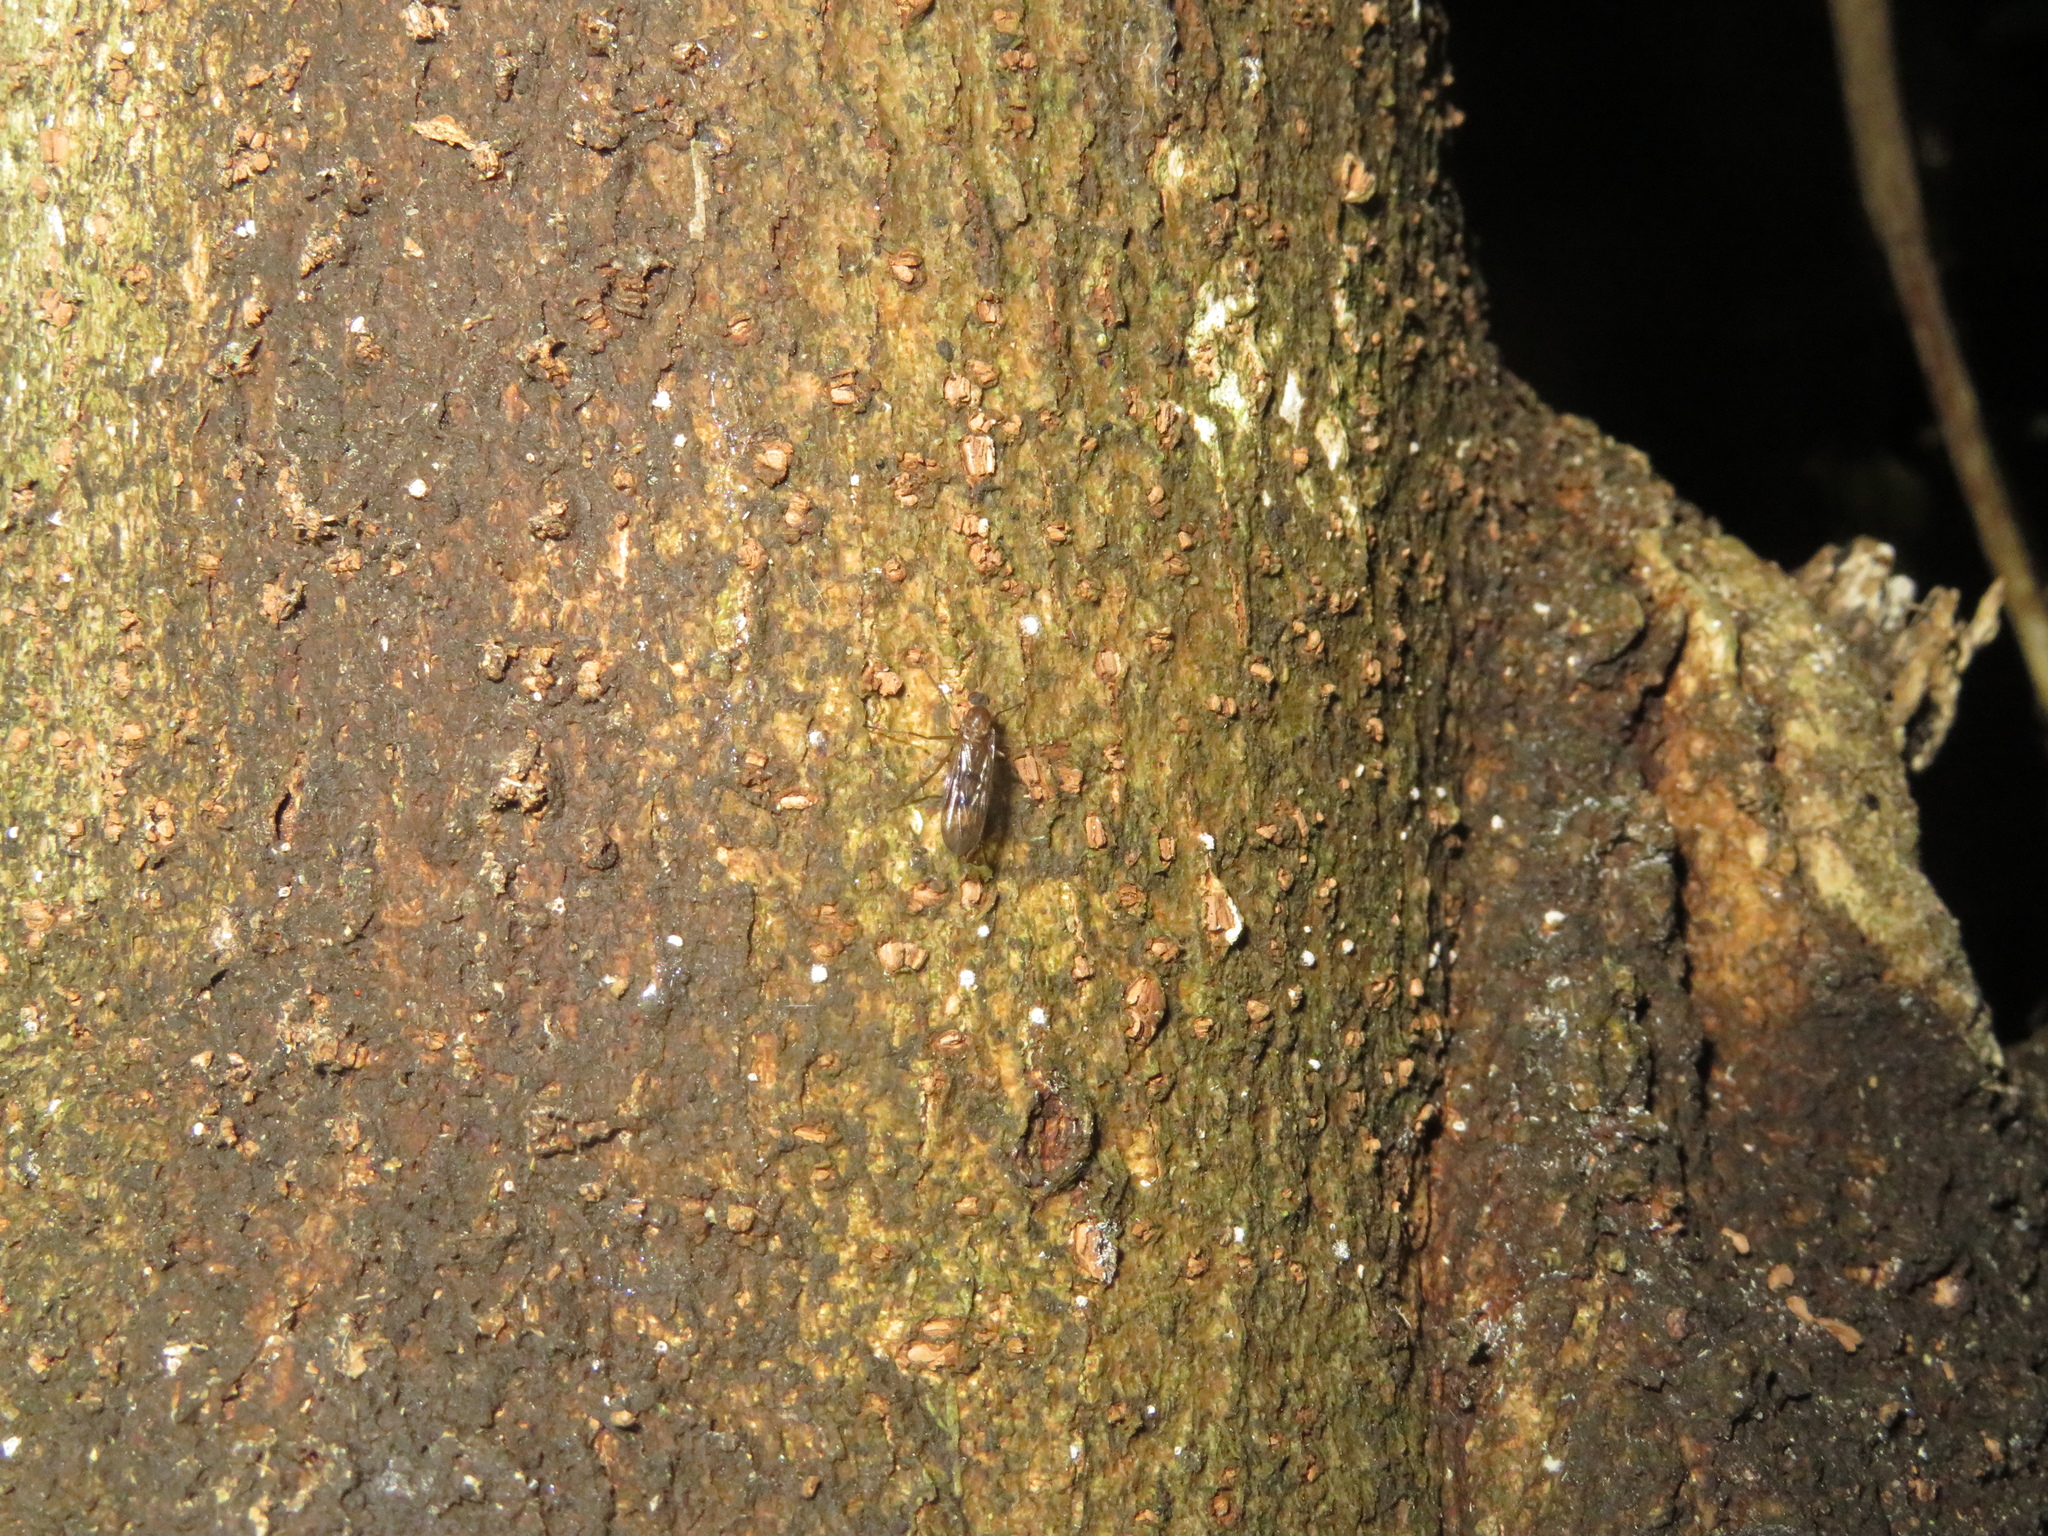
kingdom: Animalia
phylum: Arthropoda
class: Insecta
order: Diptera
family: Anisopodidae
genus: Sylvicola
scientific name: Sylvicola neozelandicus
